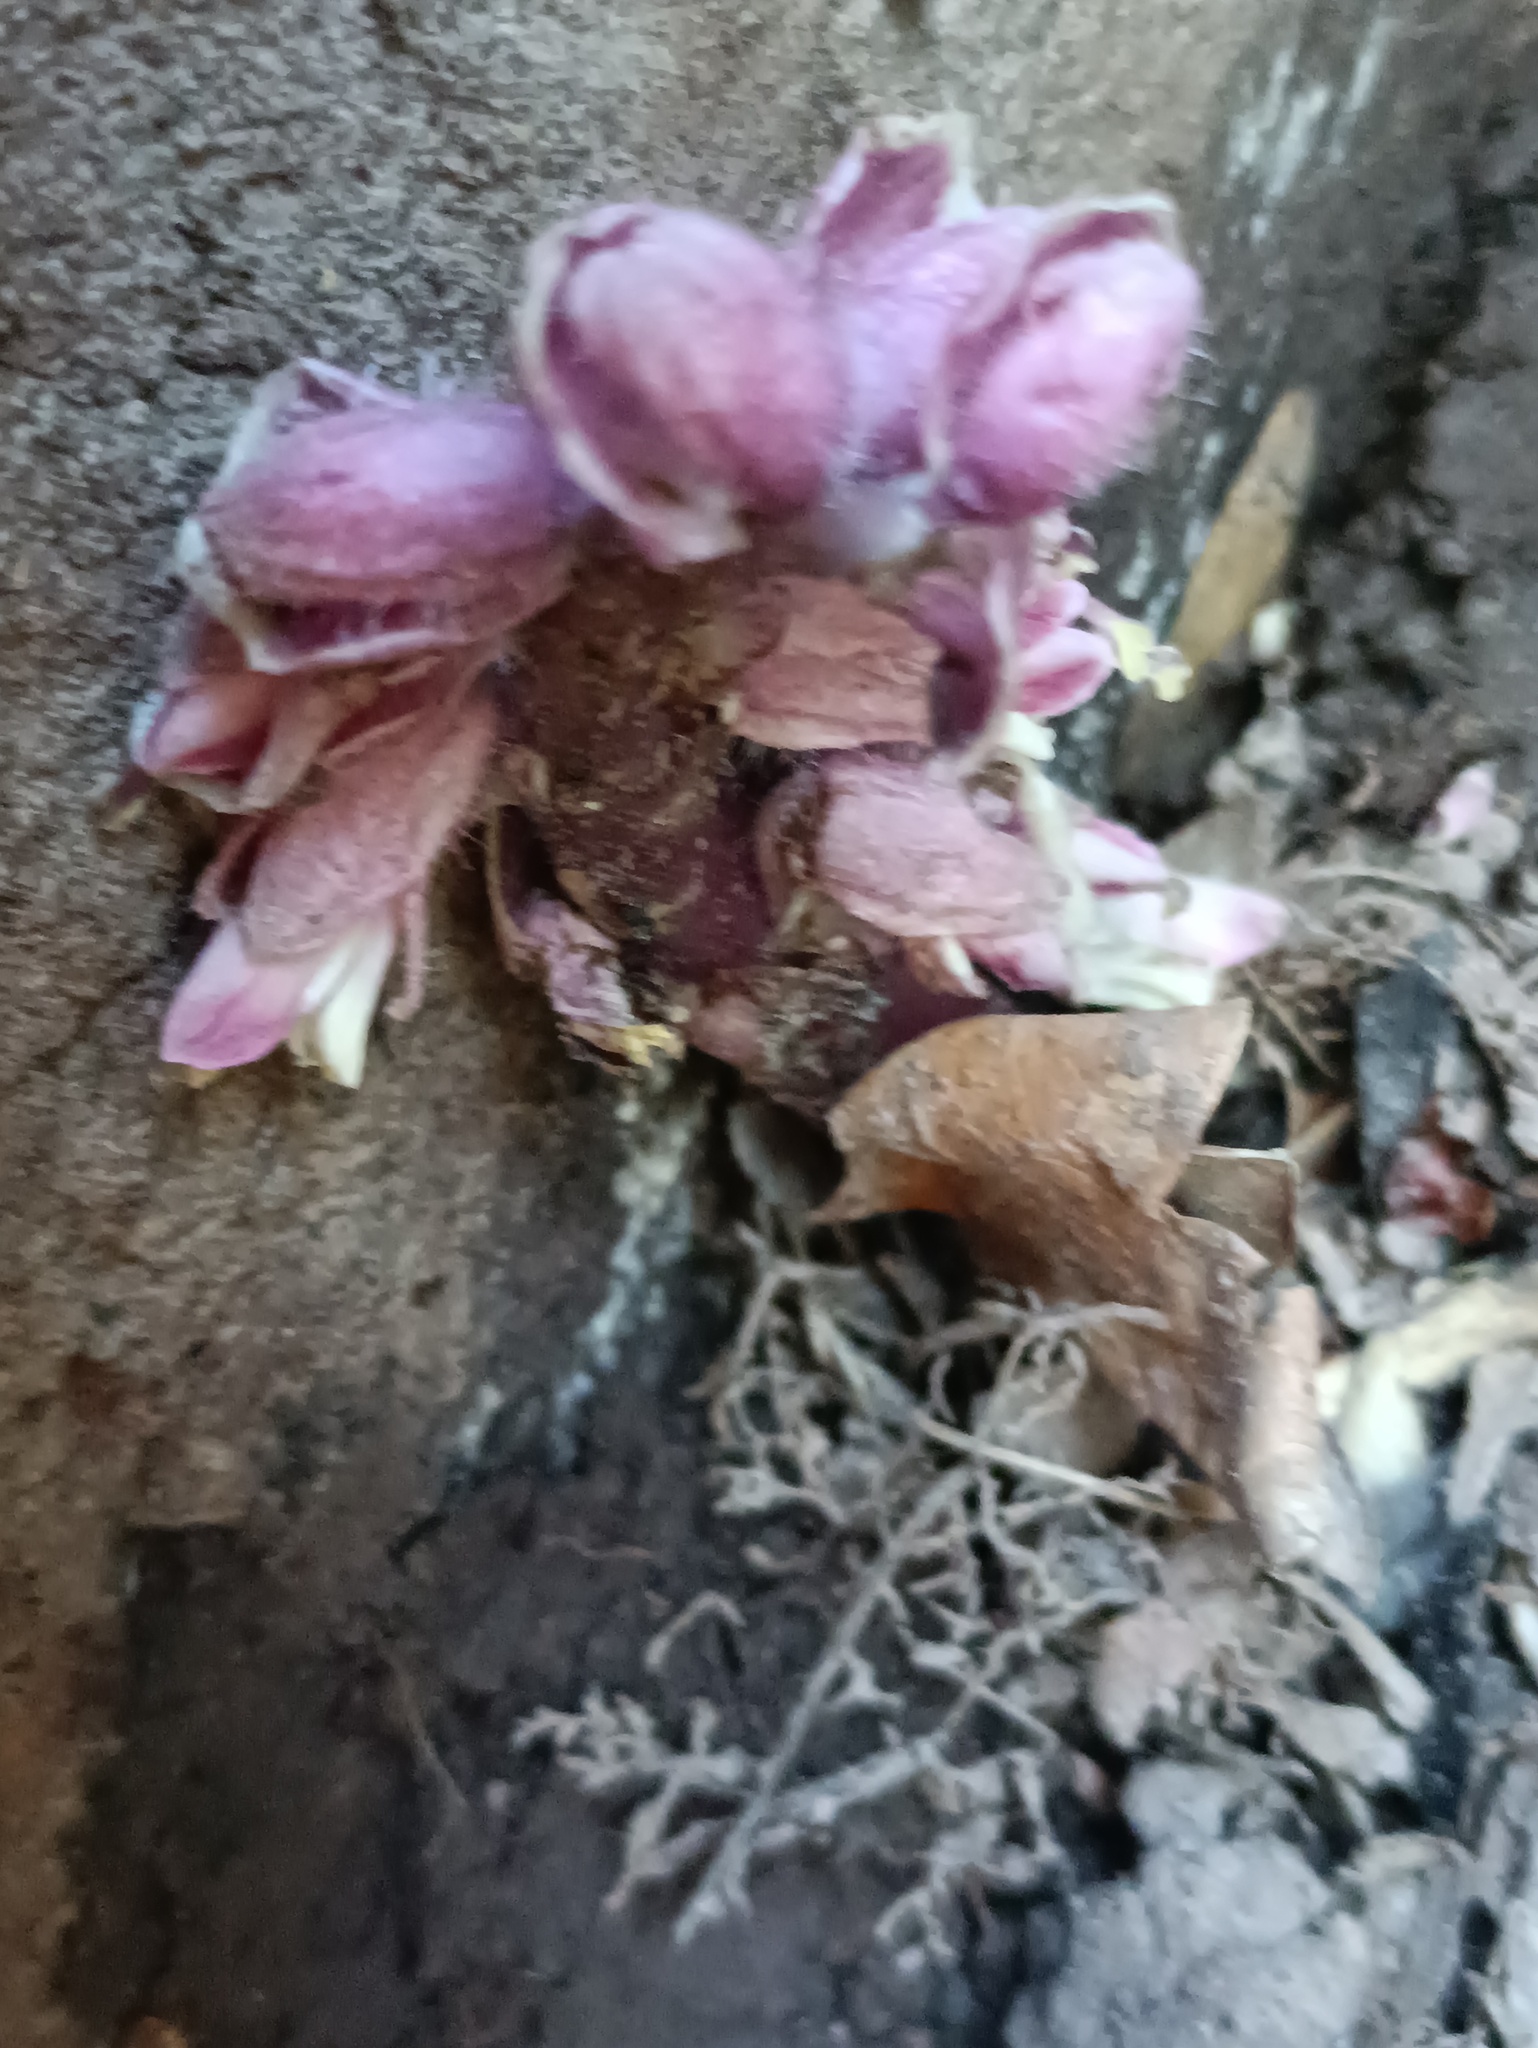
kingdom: Plantae
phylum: Tracheophyta
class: Magnoliopsida
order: Lamiales
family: Orobanchaceae
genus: Lathraea
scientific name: Lathraea squamaria
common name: Toothwort
